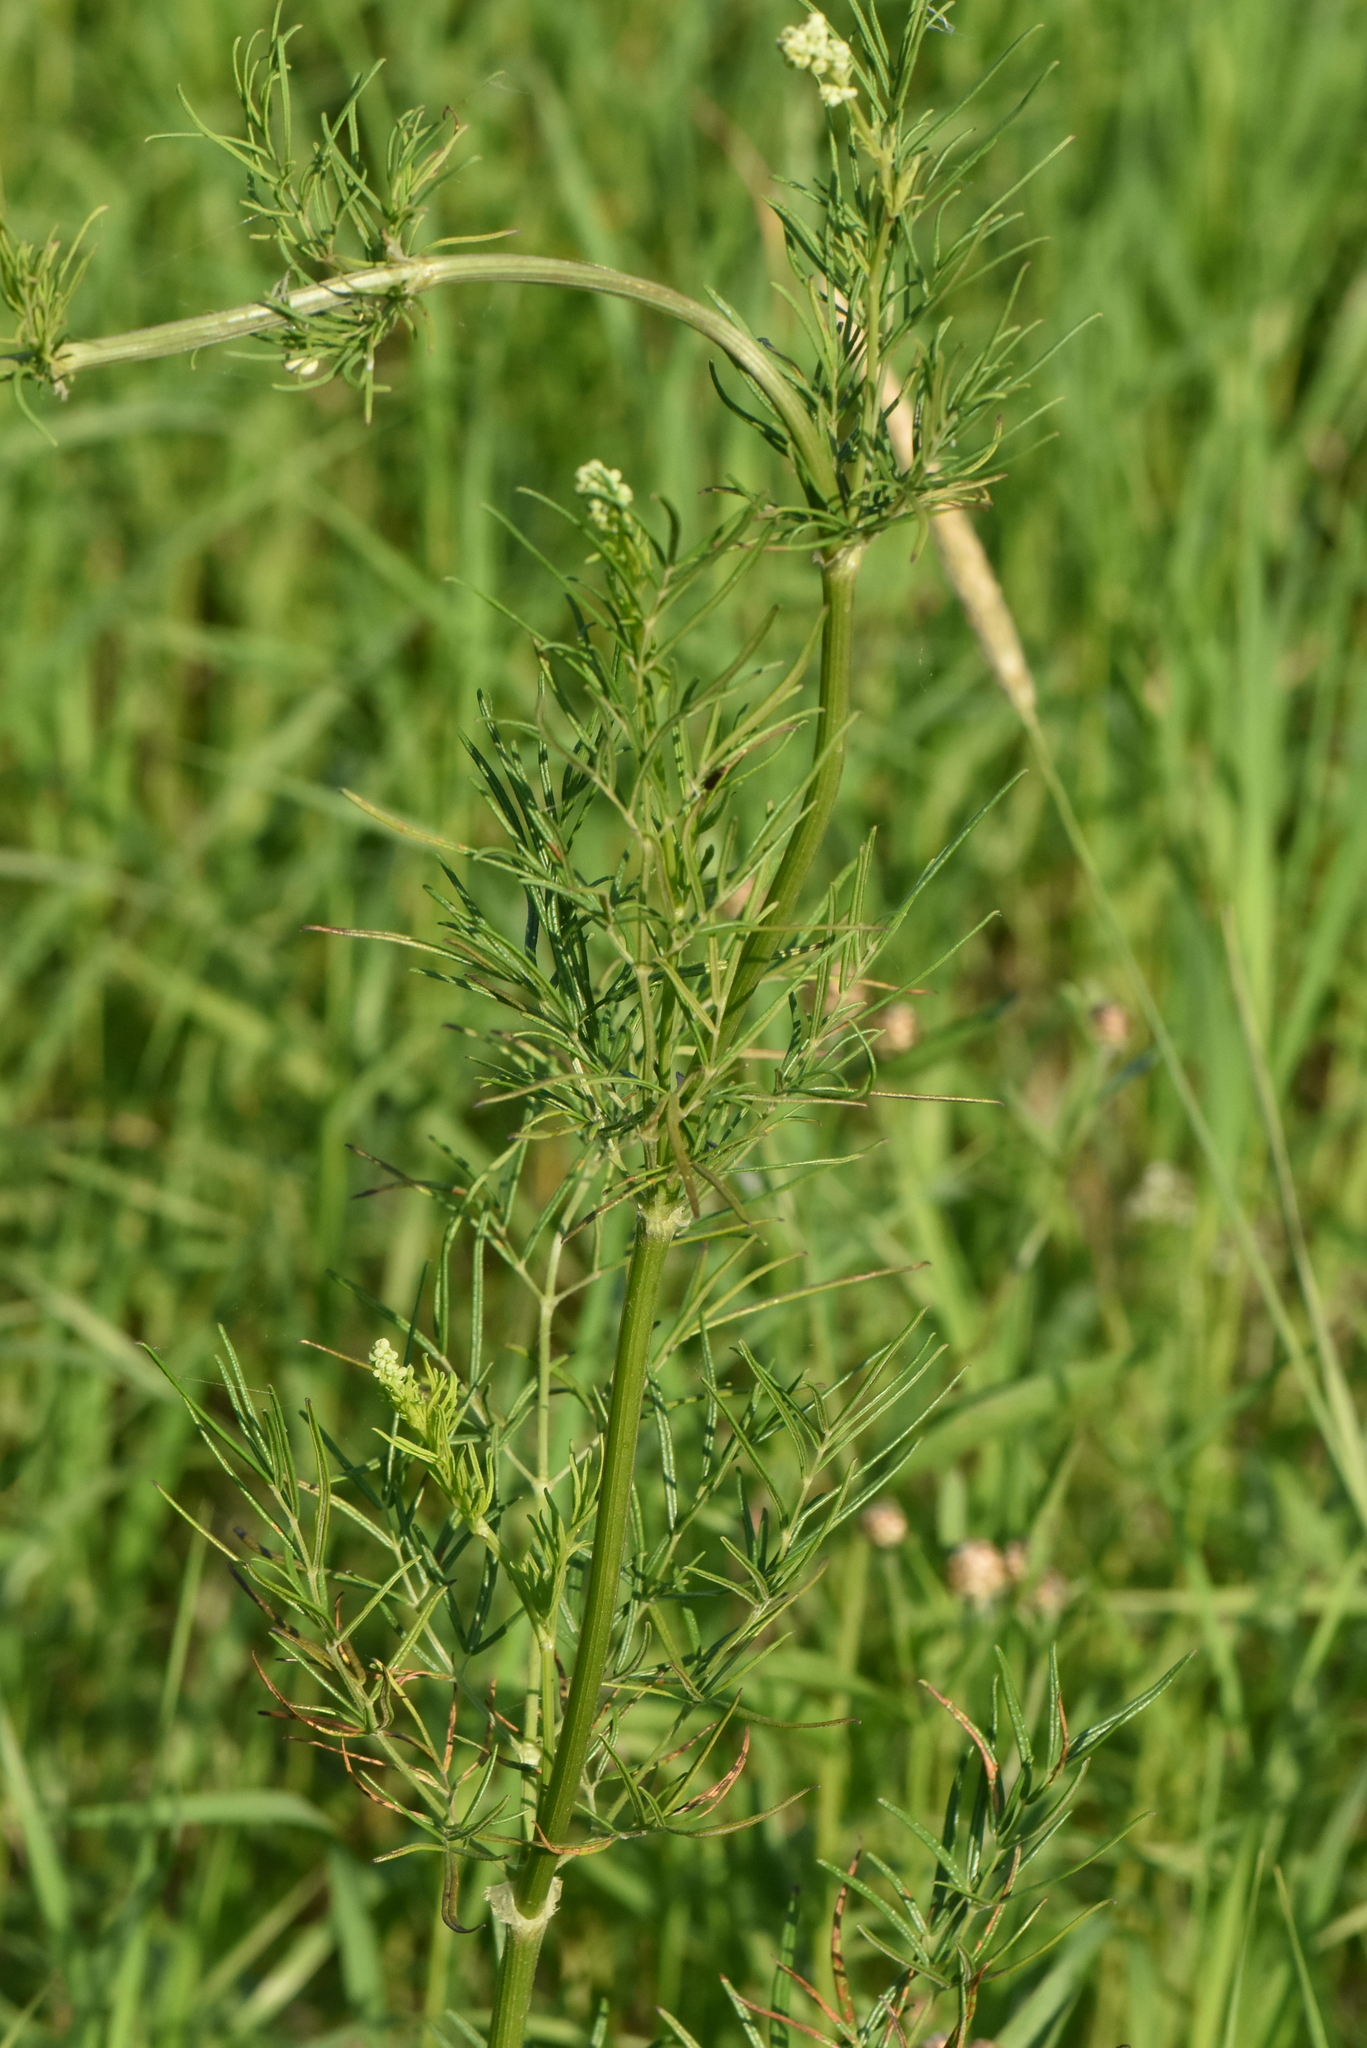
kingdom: Plantae
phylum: Tracheophyta
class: Magnoliopsida
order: Ranunculales
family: Ranunculaceae
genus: Thalictrum
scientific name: Thalictrum lucidum
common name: Shining meadow-rue
